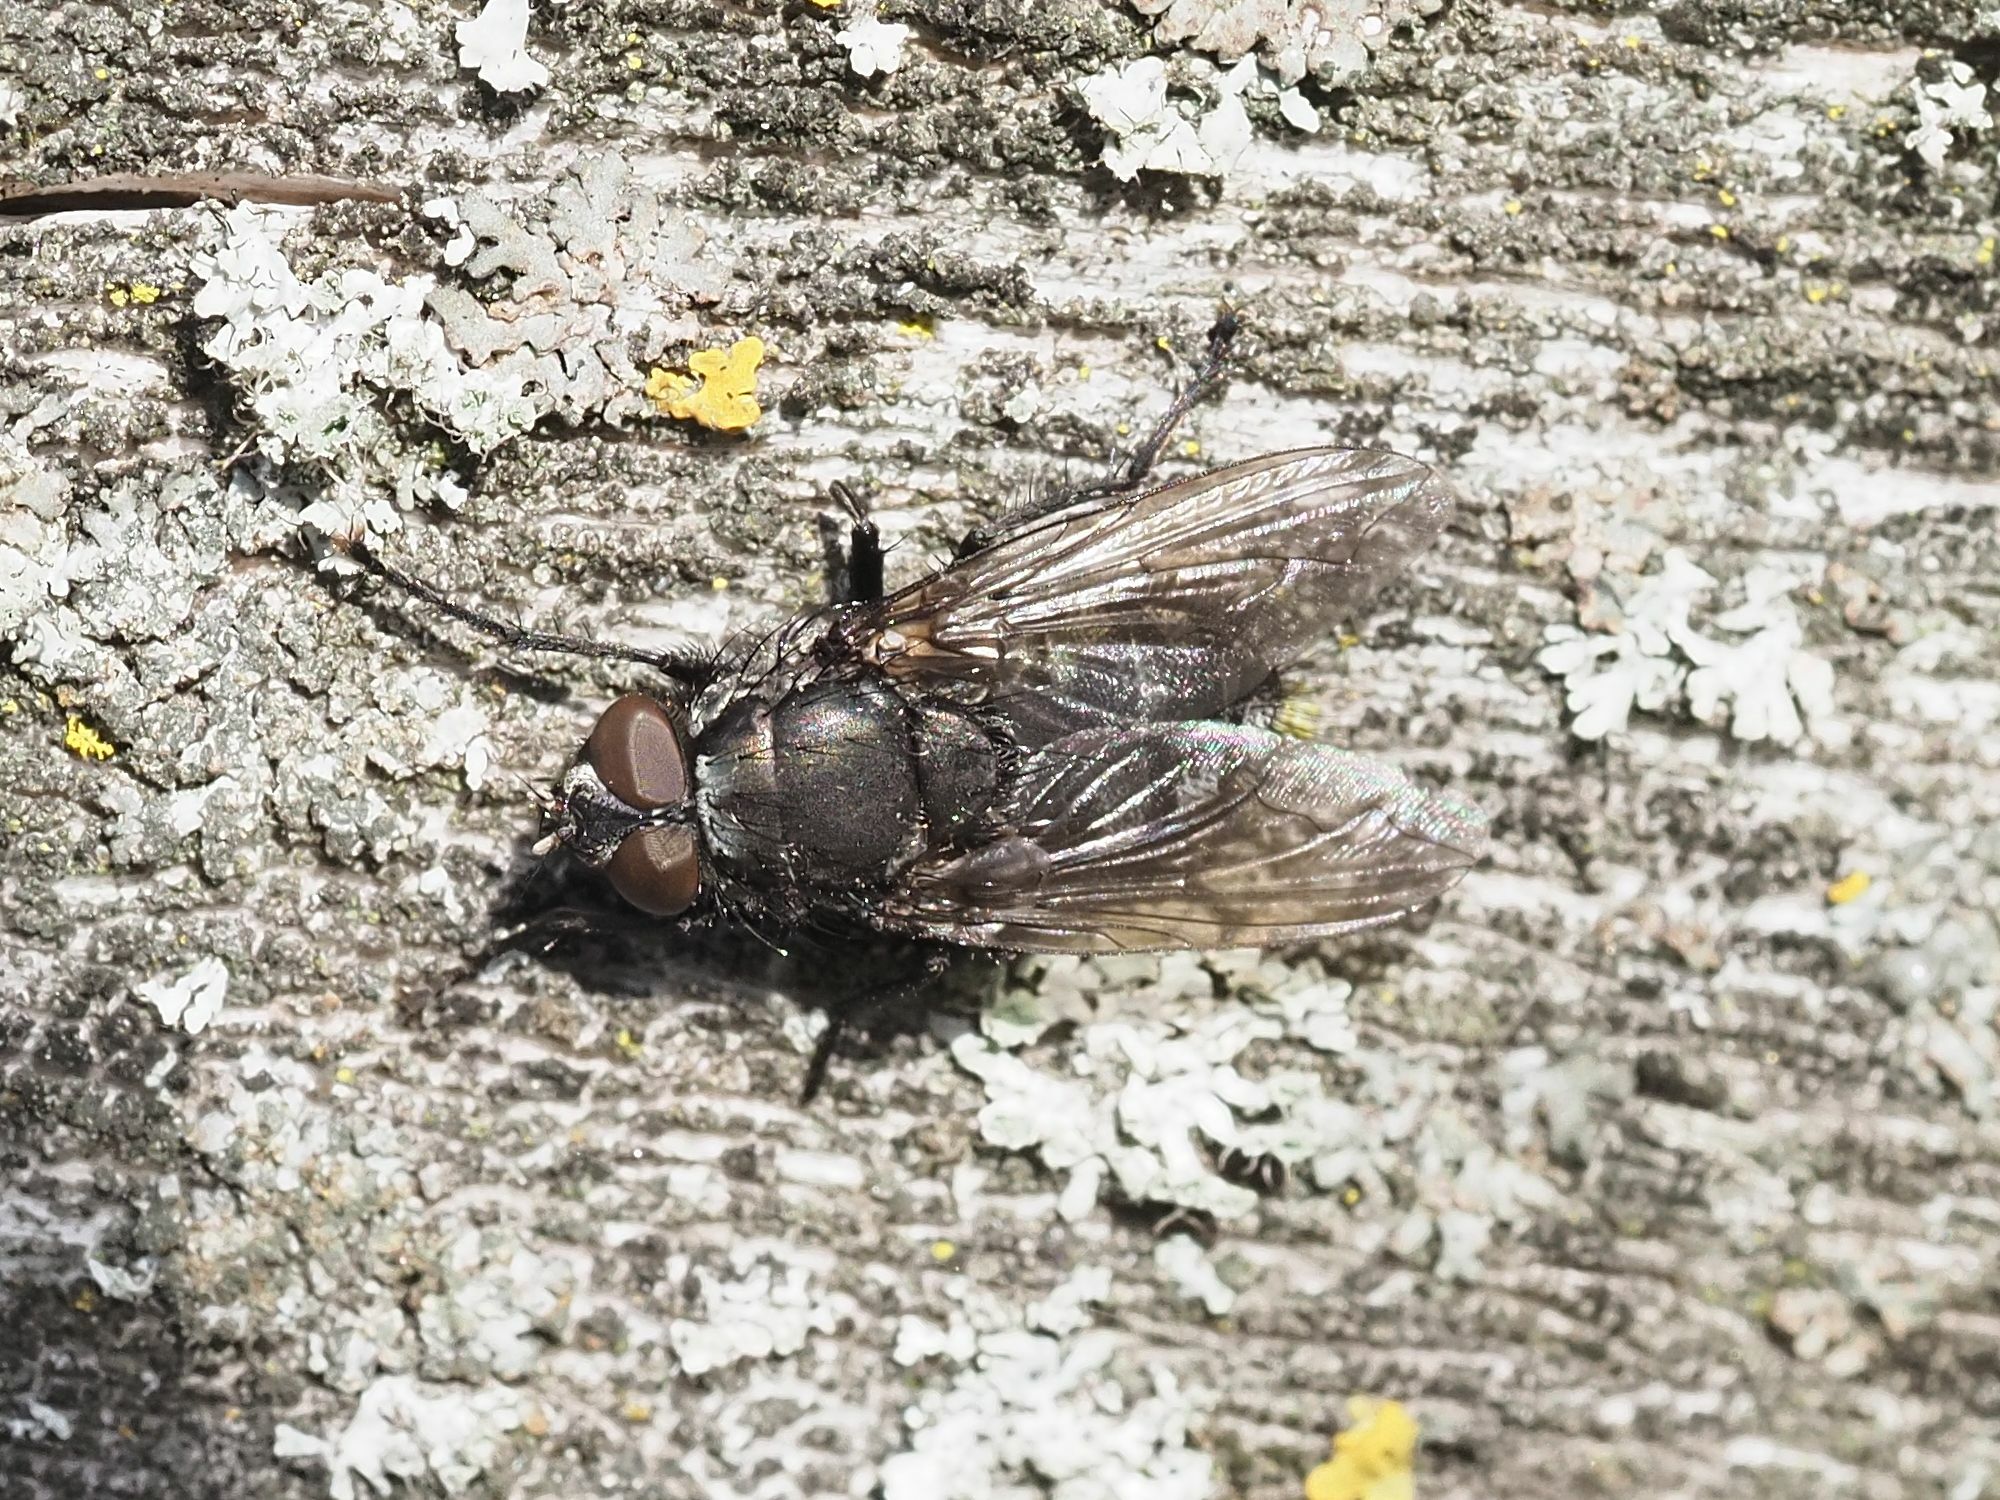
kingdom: Animalia
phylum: Arthropoda
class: Insecta
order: Diptera
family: Polleniidae
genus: Pollenia
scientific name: Pollenia vagabunda
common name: Vagabund cluster fly
